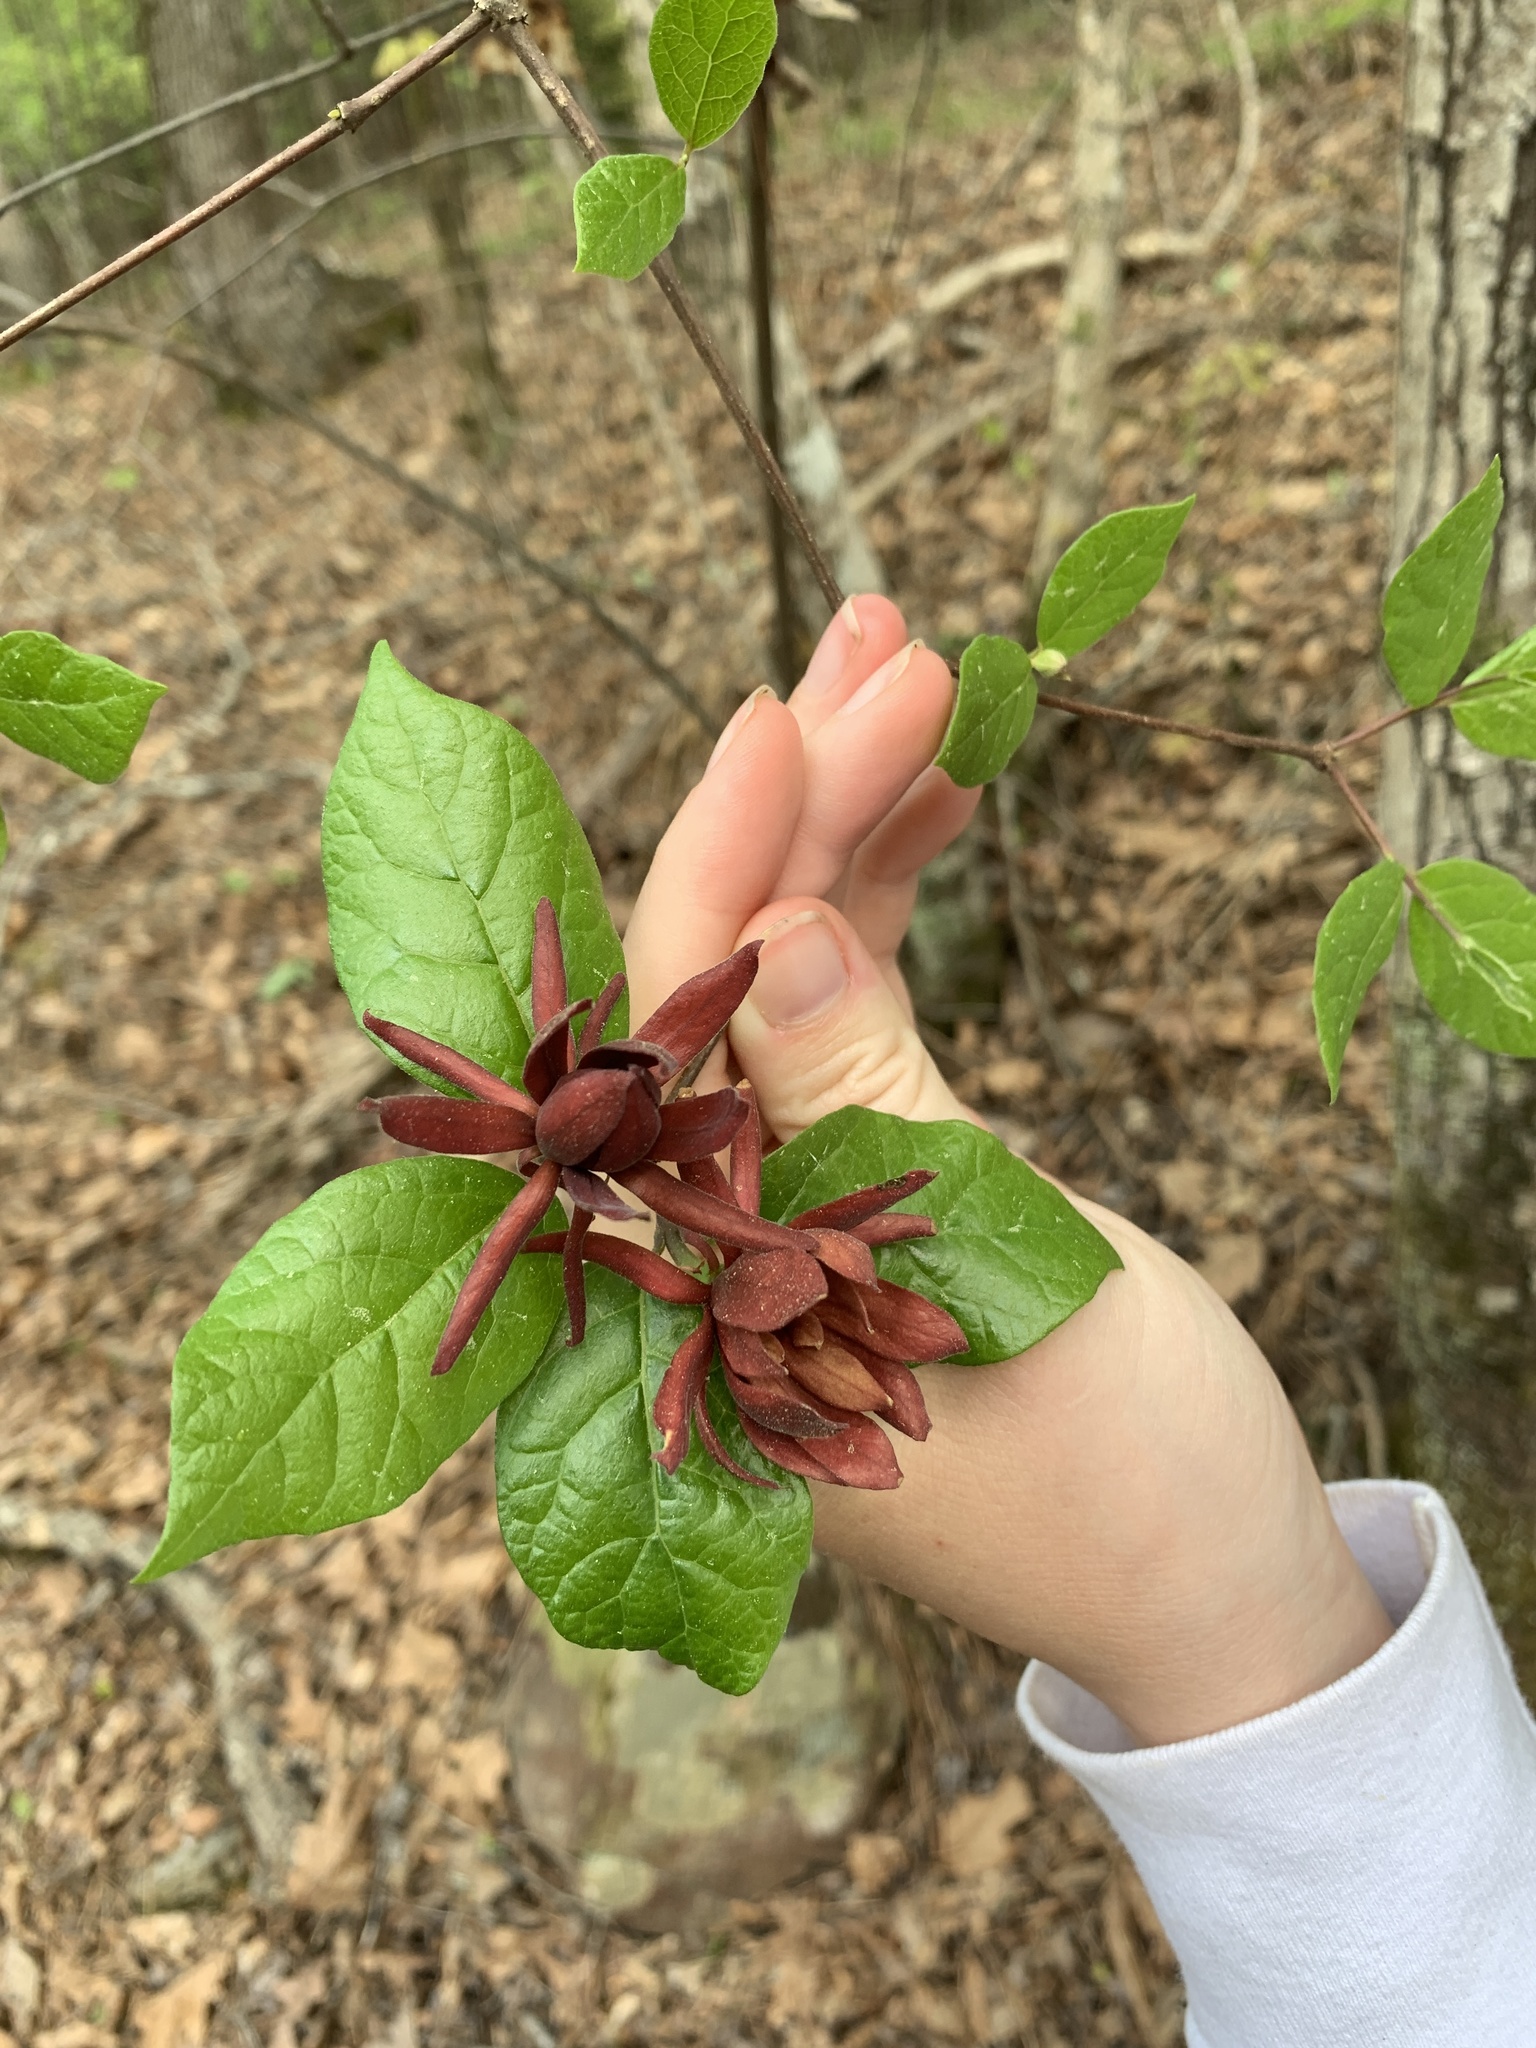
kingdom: Plantae
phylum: Tracheophyta
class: Magnoliopsida
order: Laurales
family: Calycanthaceae
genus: Calycanthus
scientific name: Calycanthus floridus
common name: Carolina-allspice
